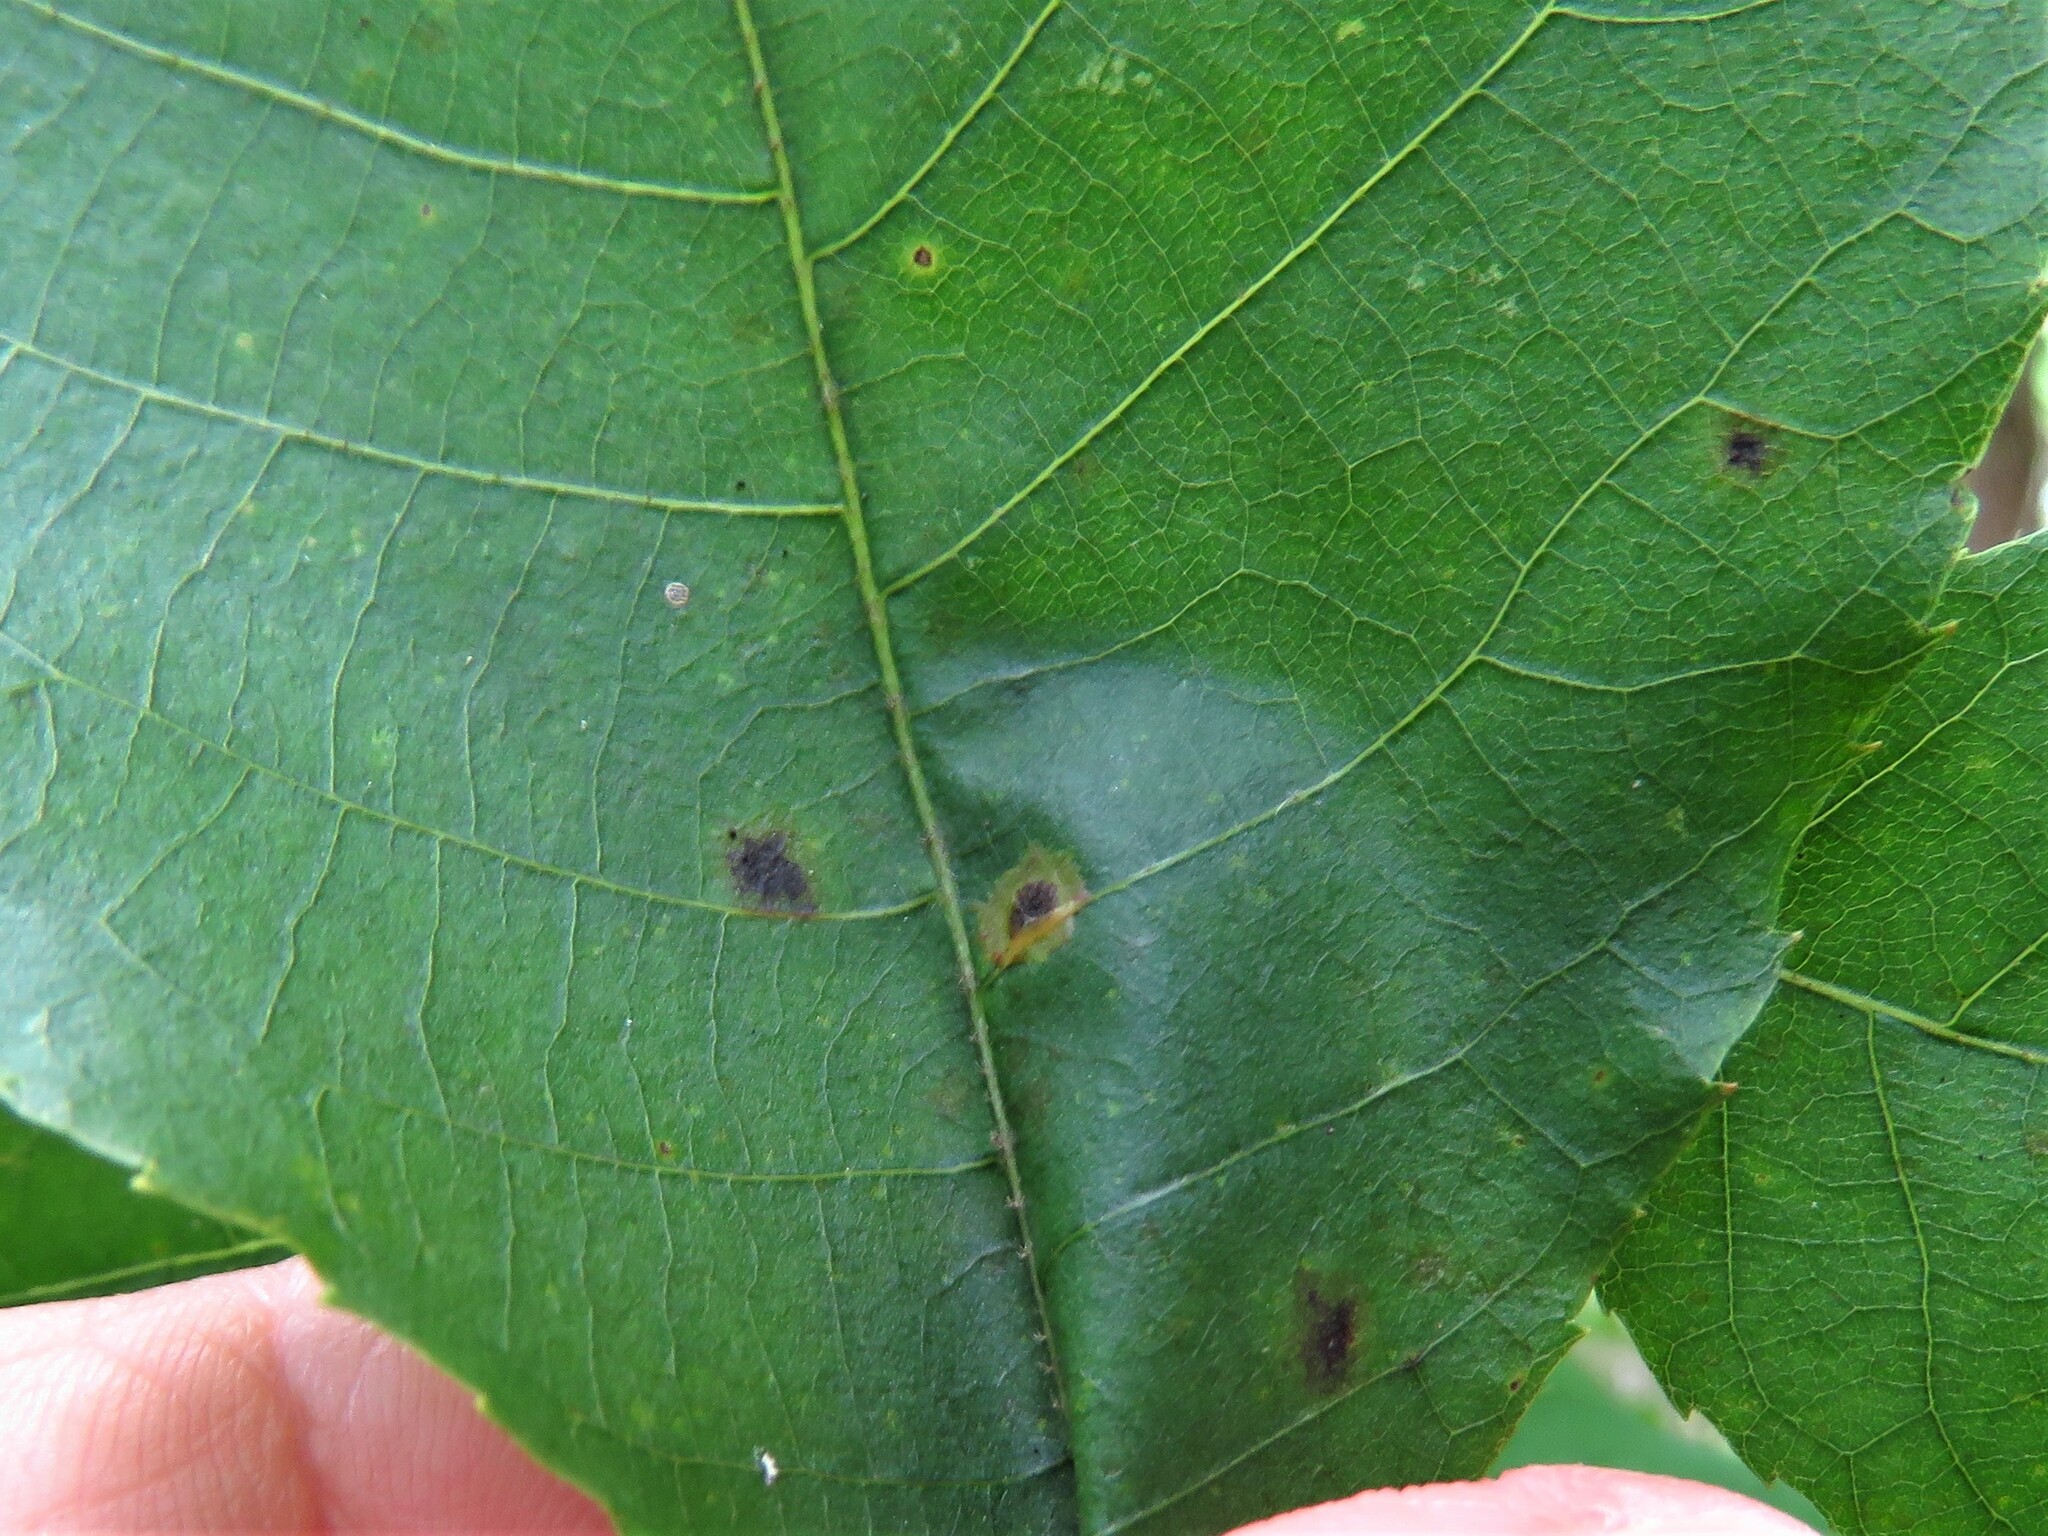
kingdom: Animalia
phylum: Arthropoda
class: Insecta
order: Diptera
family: Cecidomyiidae
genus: Caryomyia
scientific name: Caryomyia tubicola
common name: Hickory bullet gall midge
